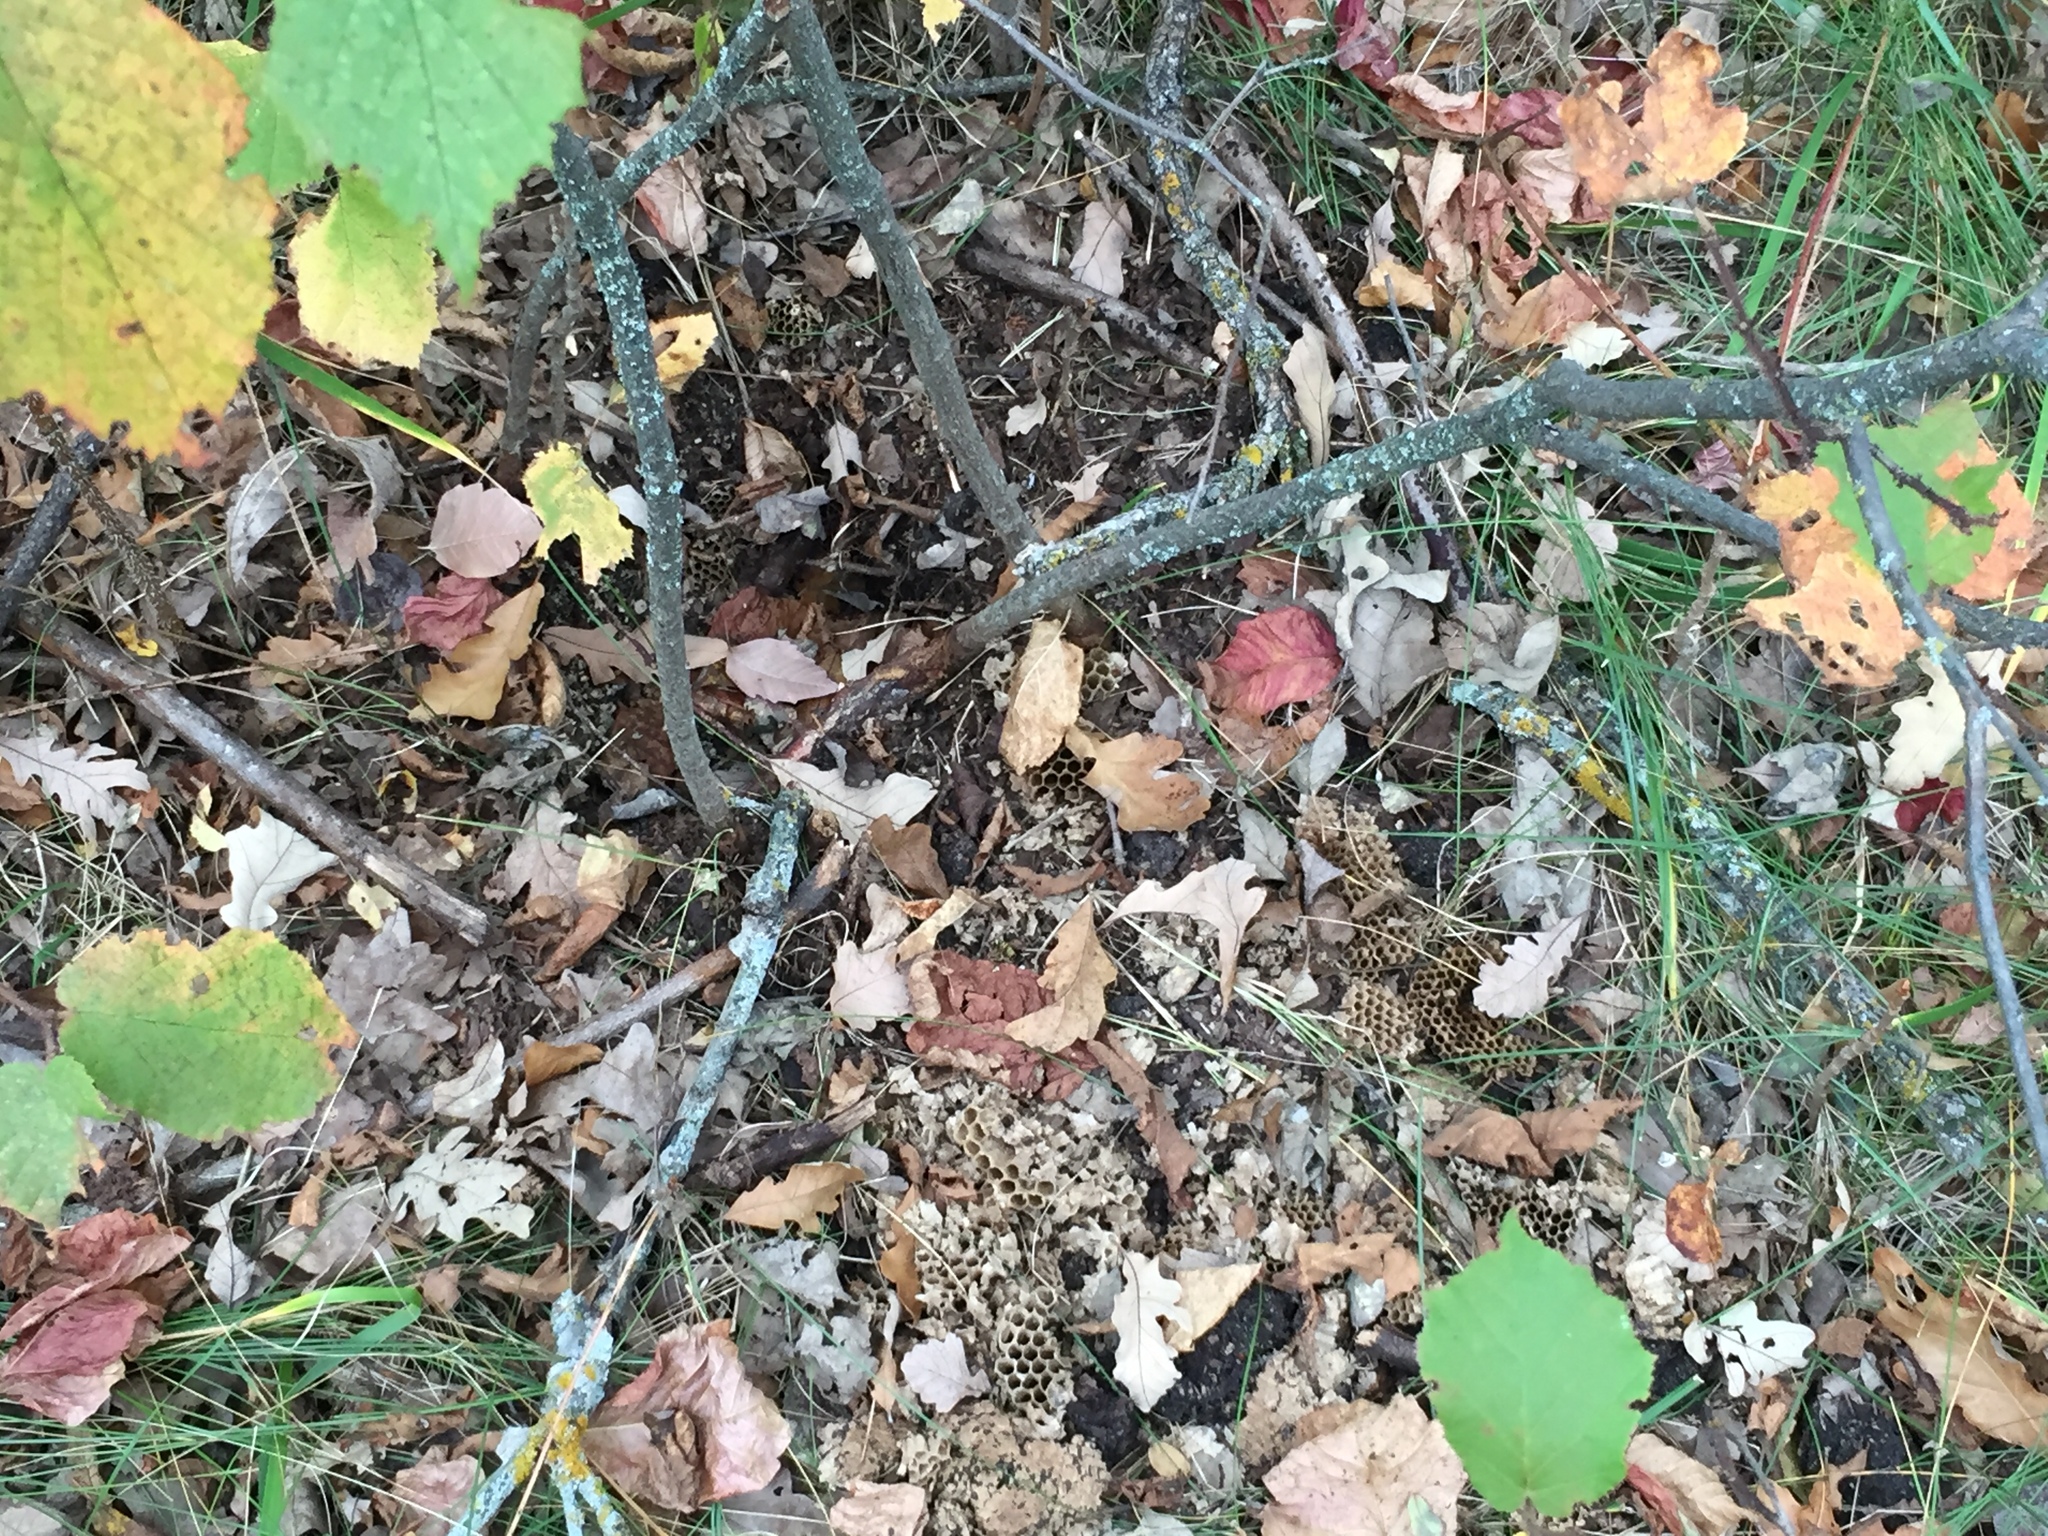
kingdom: Animalia
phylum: Arthropoda
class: Insecta
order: Hymenoptera
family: Vespidae
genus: Vespula
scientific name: Vespula
